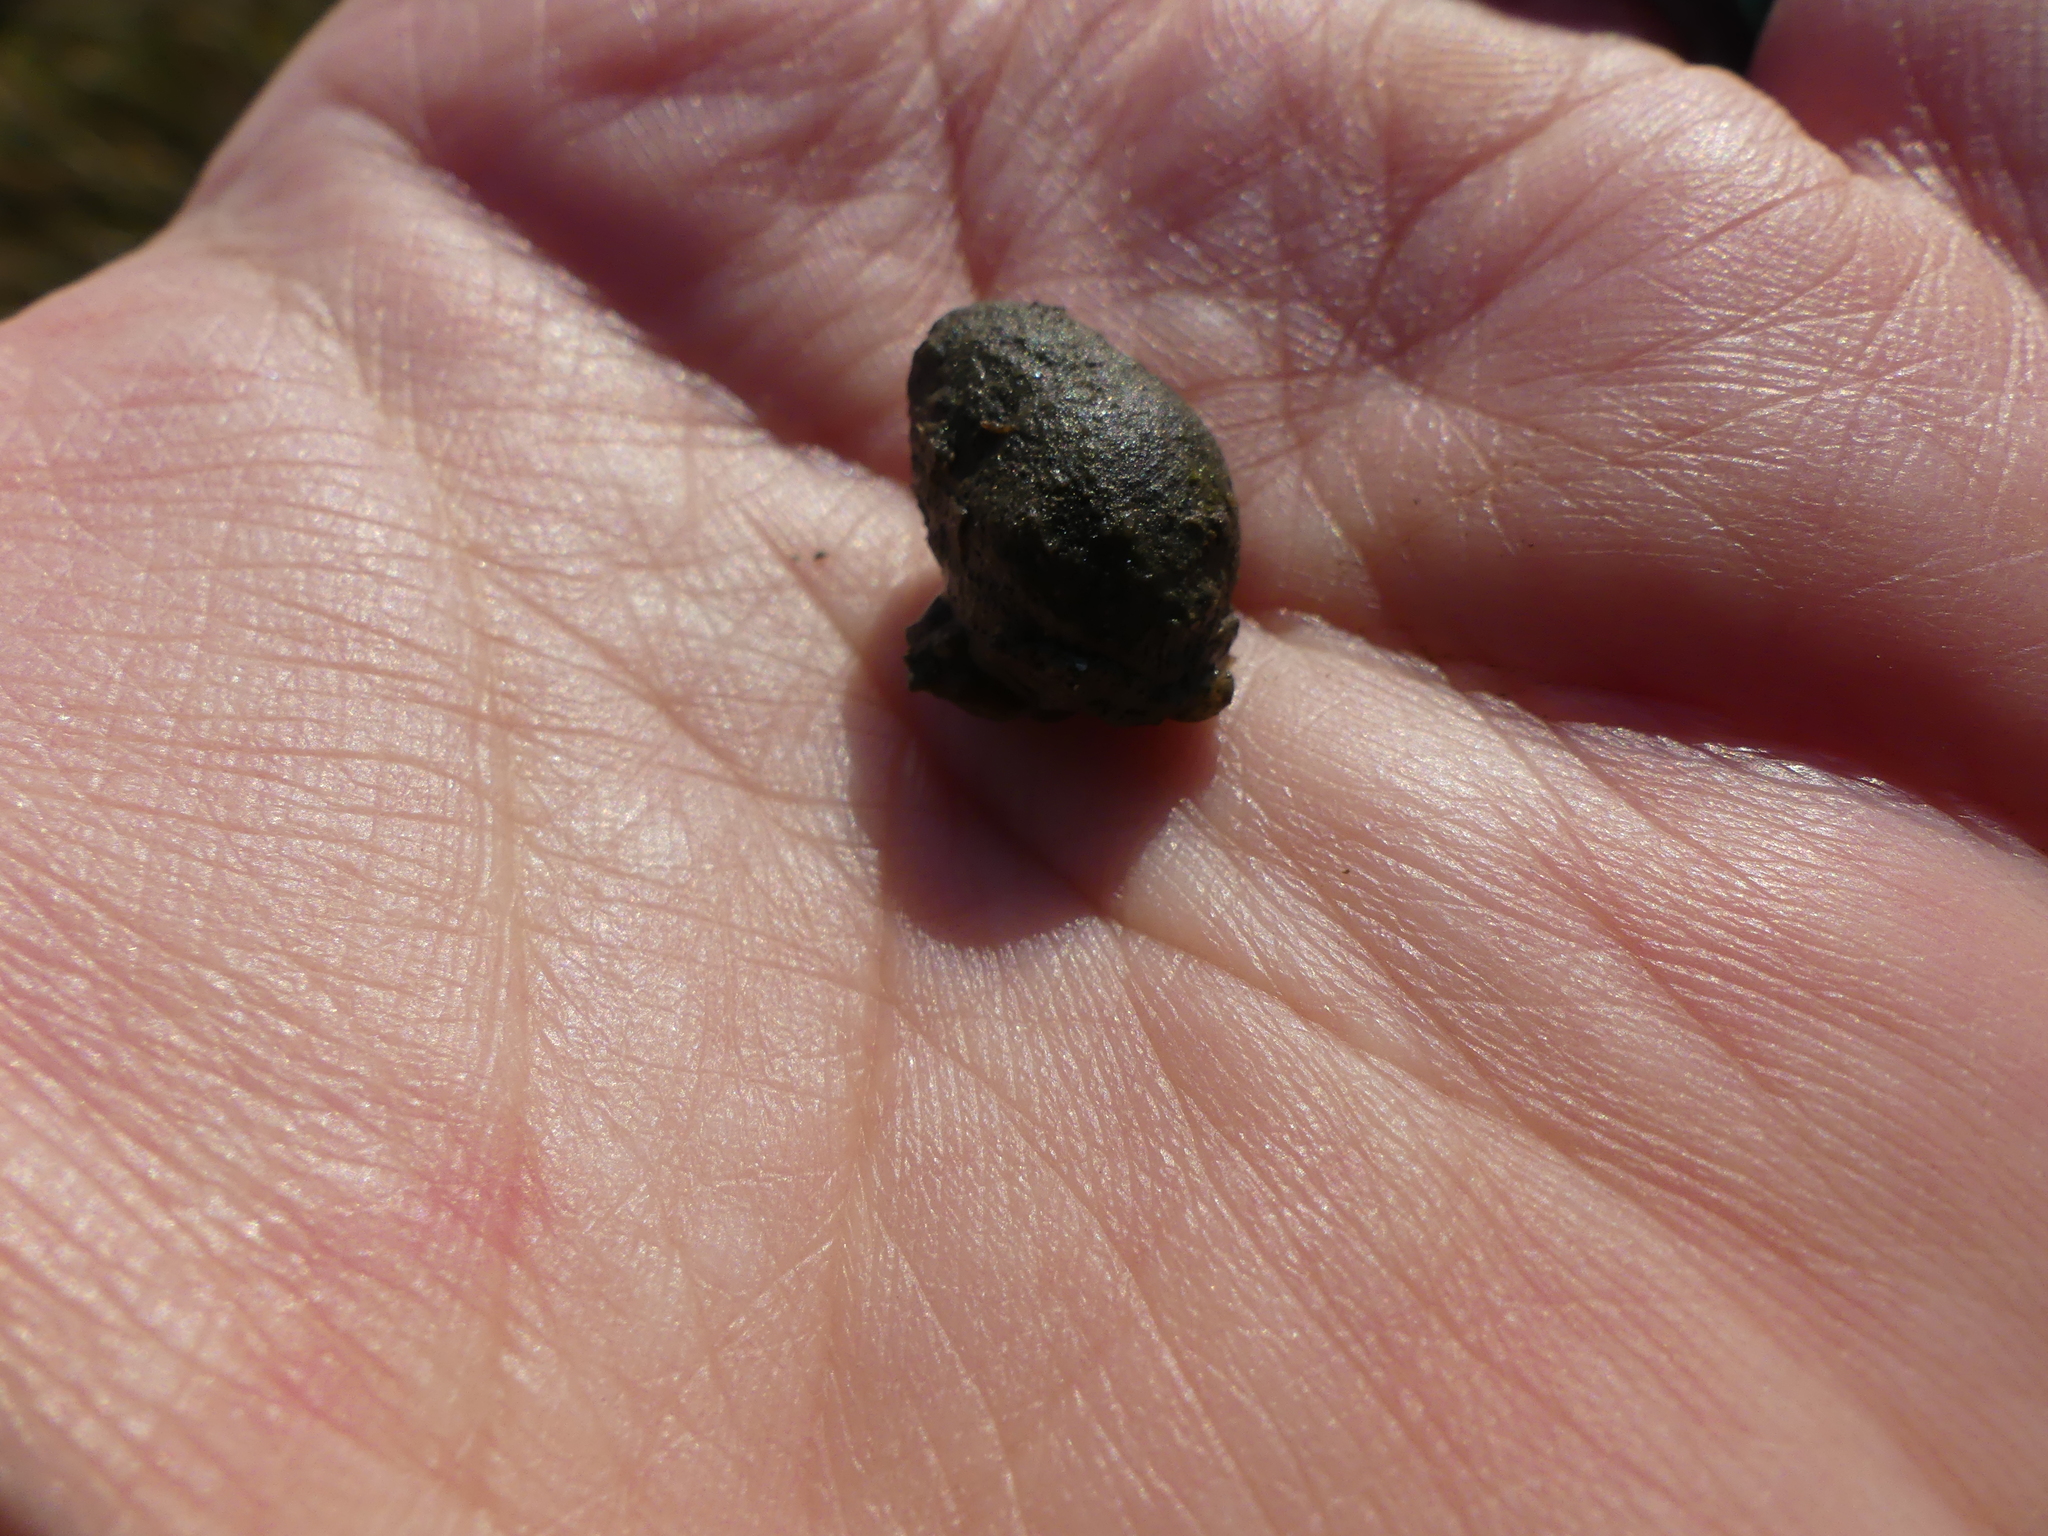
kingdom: Animalia
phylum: Mollusca
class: Gastropoda
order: Neogastropoda
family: Nassariidae
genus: Ilyanassa
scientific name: Ilyanassa obsoleta
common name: Eastern mudsnail
